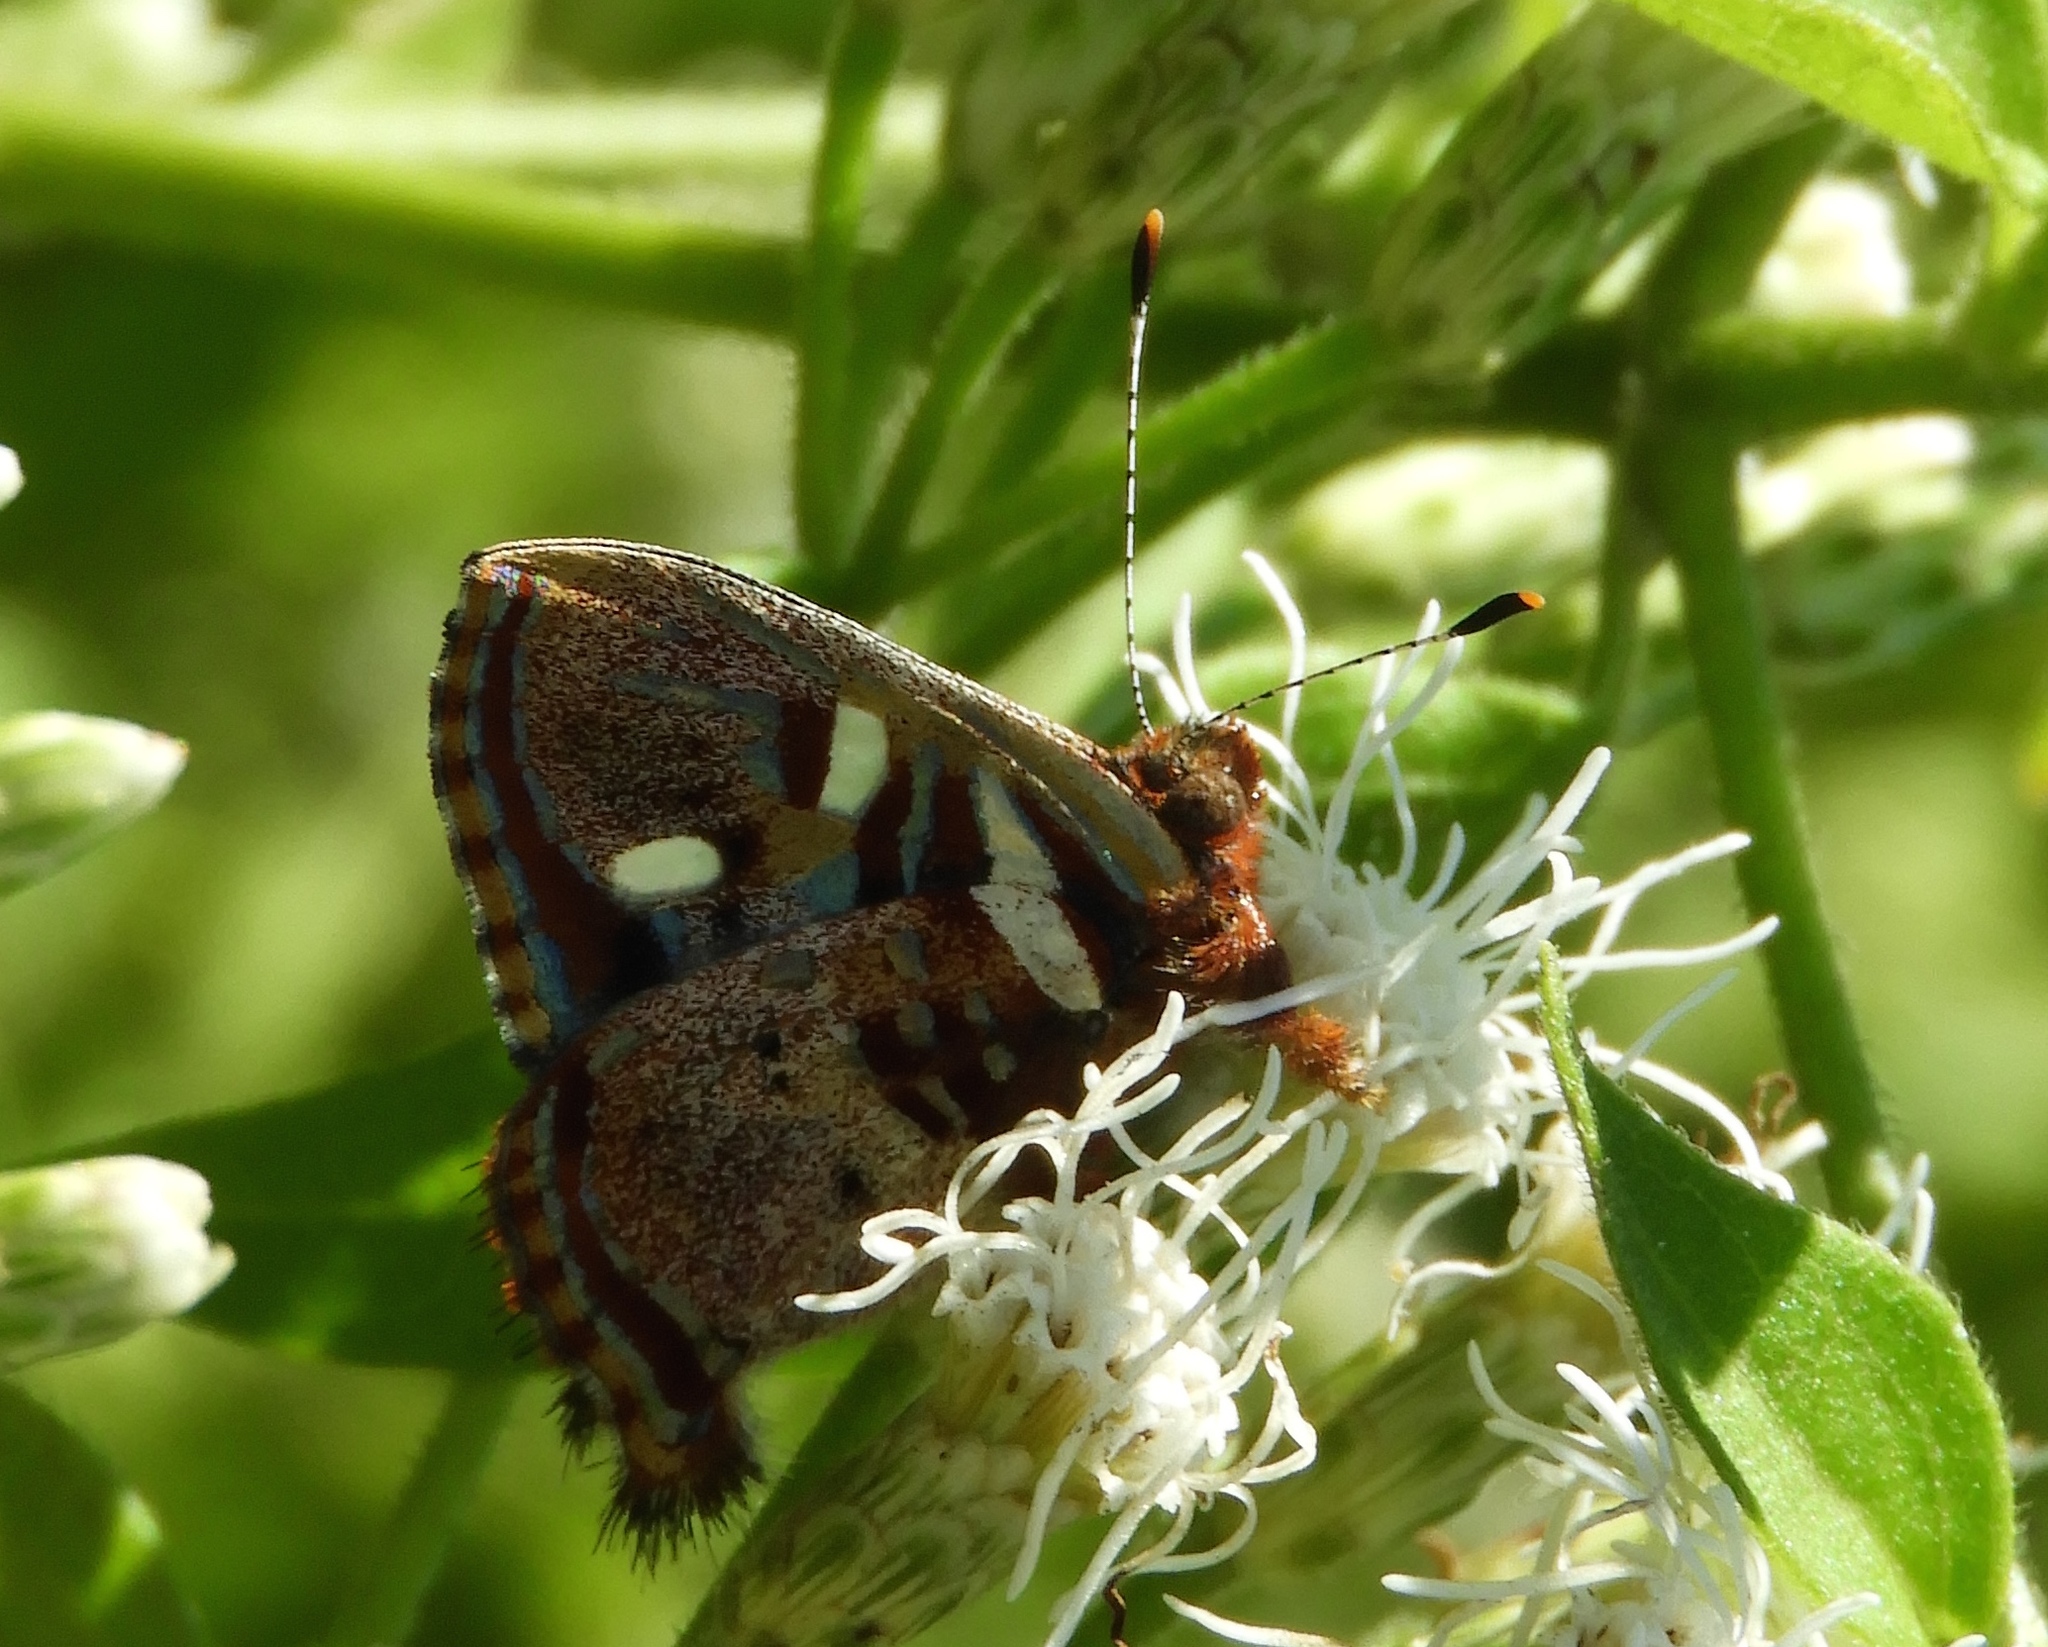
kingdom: Animalia
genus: Anteros
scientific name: Anteros carausius
